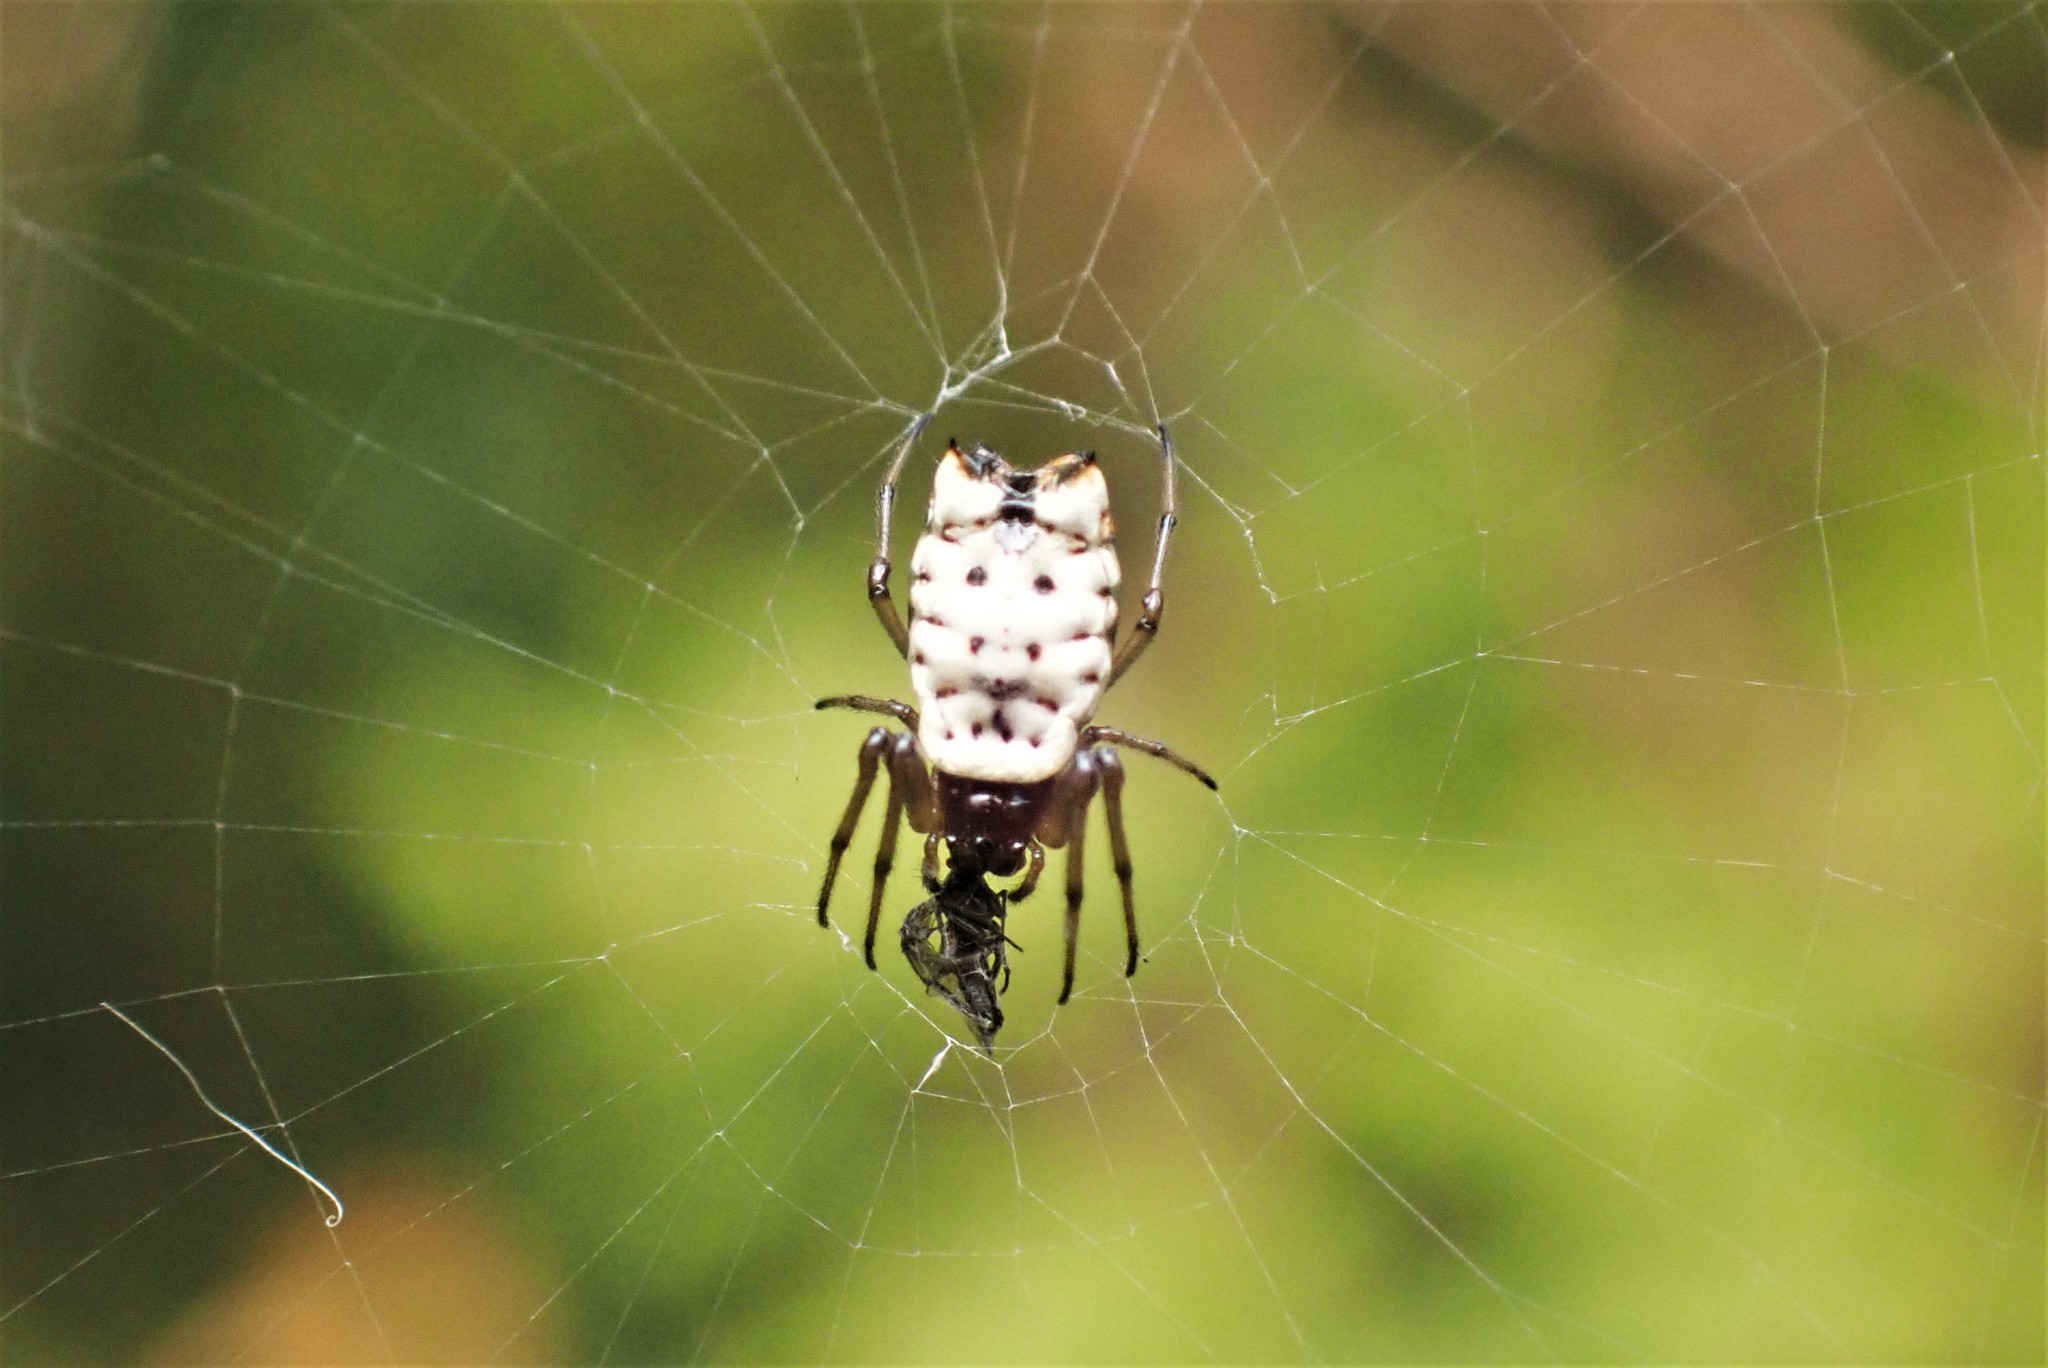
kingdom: Animalia
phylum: Arthropoda
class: Arachnida
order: Araneae
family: Araneidae
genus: Micrathena
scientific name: Micrathena mitrata
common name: Orb weavers
